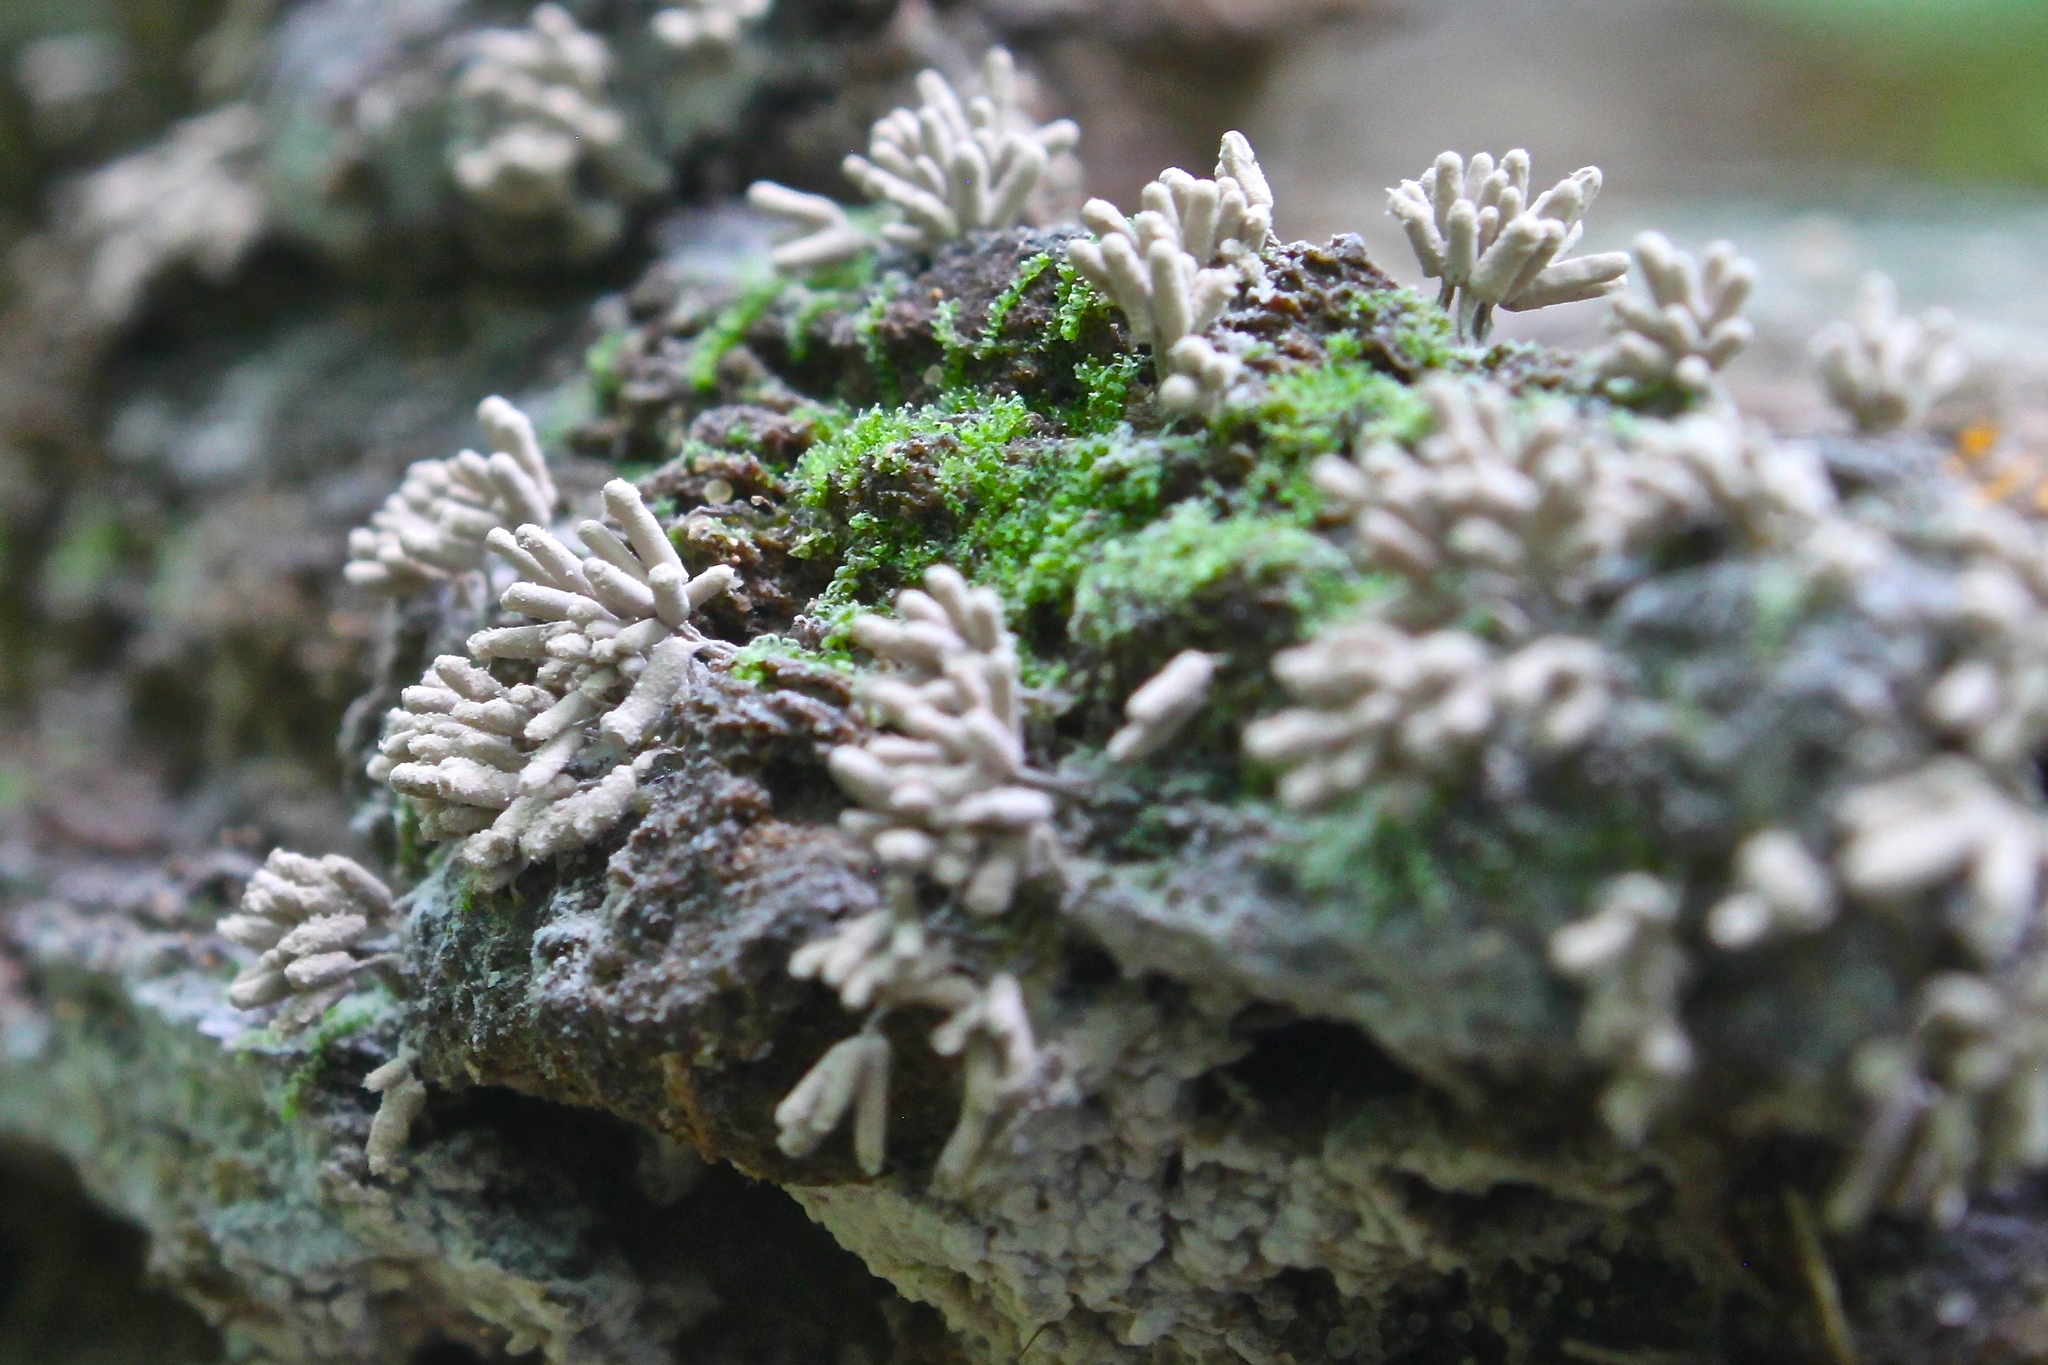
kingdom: Protozoa
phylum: Mycetozoa
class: Myxomycetes
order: Trichiales
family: Arcyriaceae
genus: Arcyria
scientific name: Arcyria cinerea
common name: White carnival candy slime mold
